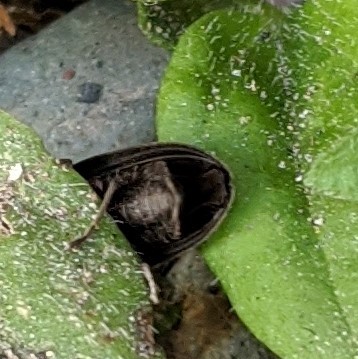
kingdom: Animalia
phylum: Arthropoda
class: Insecta
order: Coleoptera
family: Lampyridae
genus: Photinus
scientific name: Photinus corrusca
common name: Winter firefly
